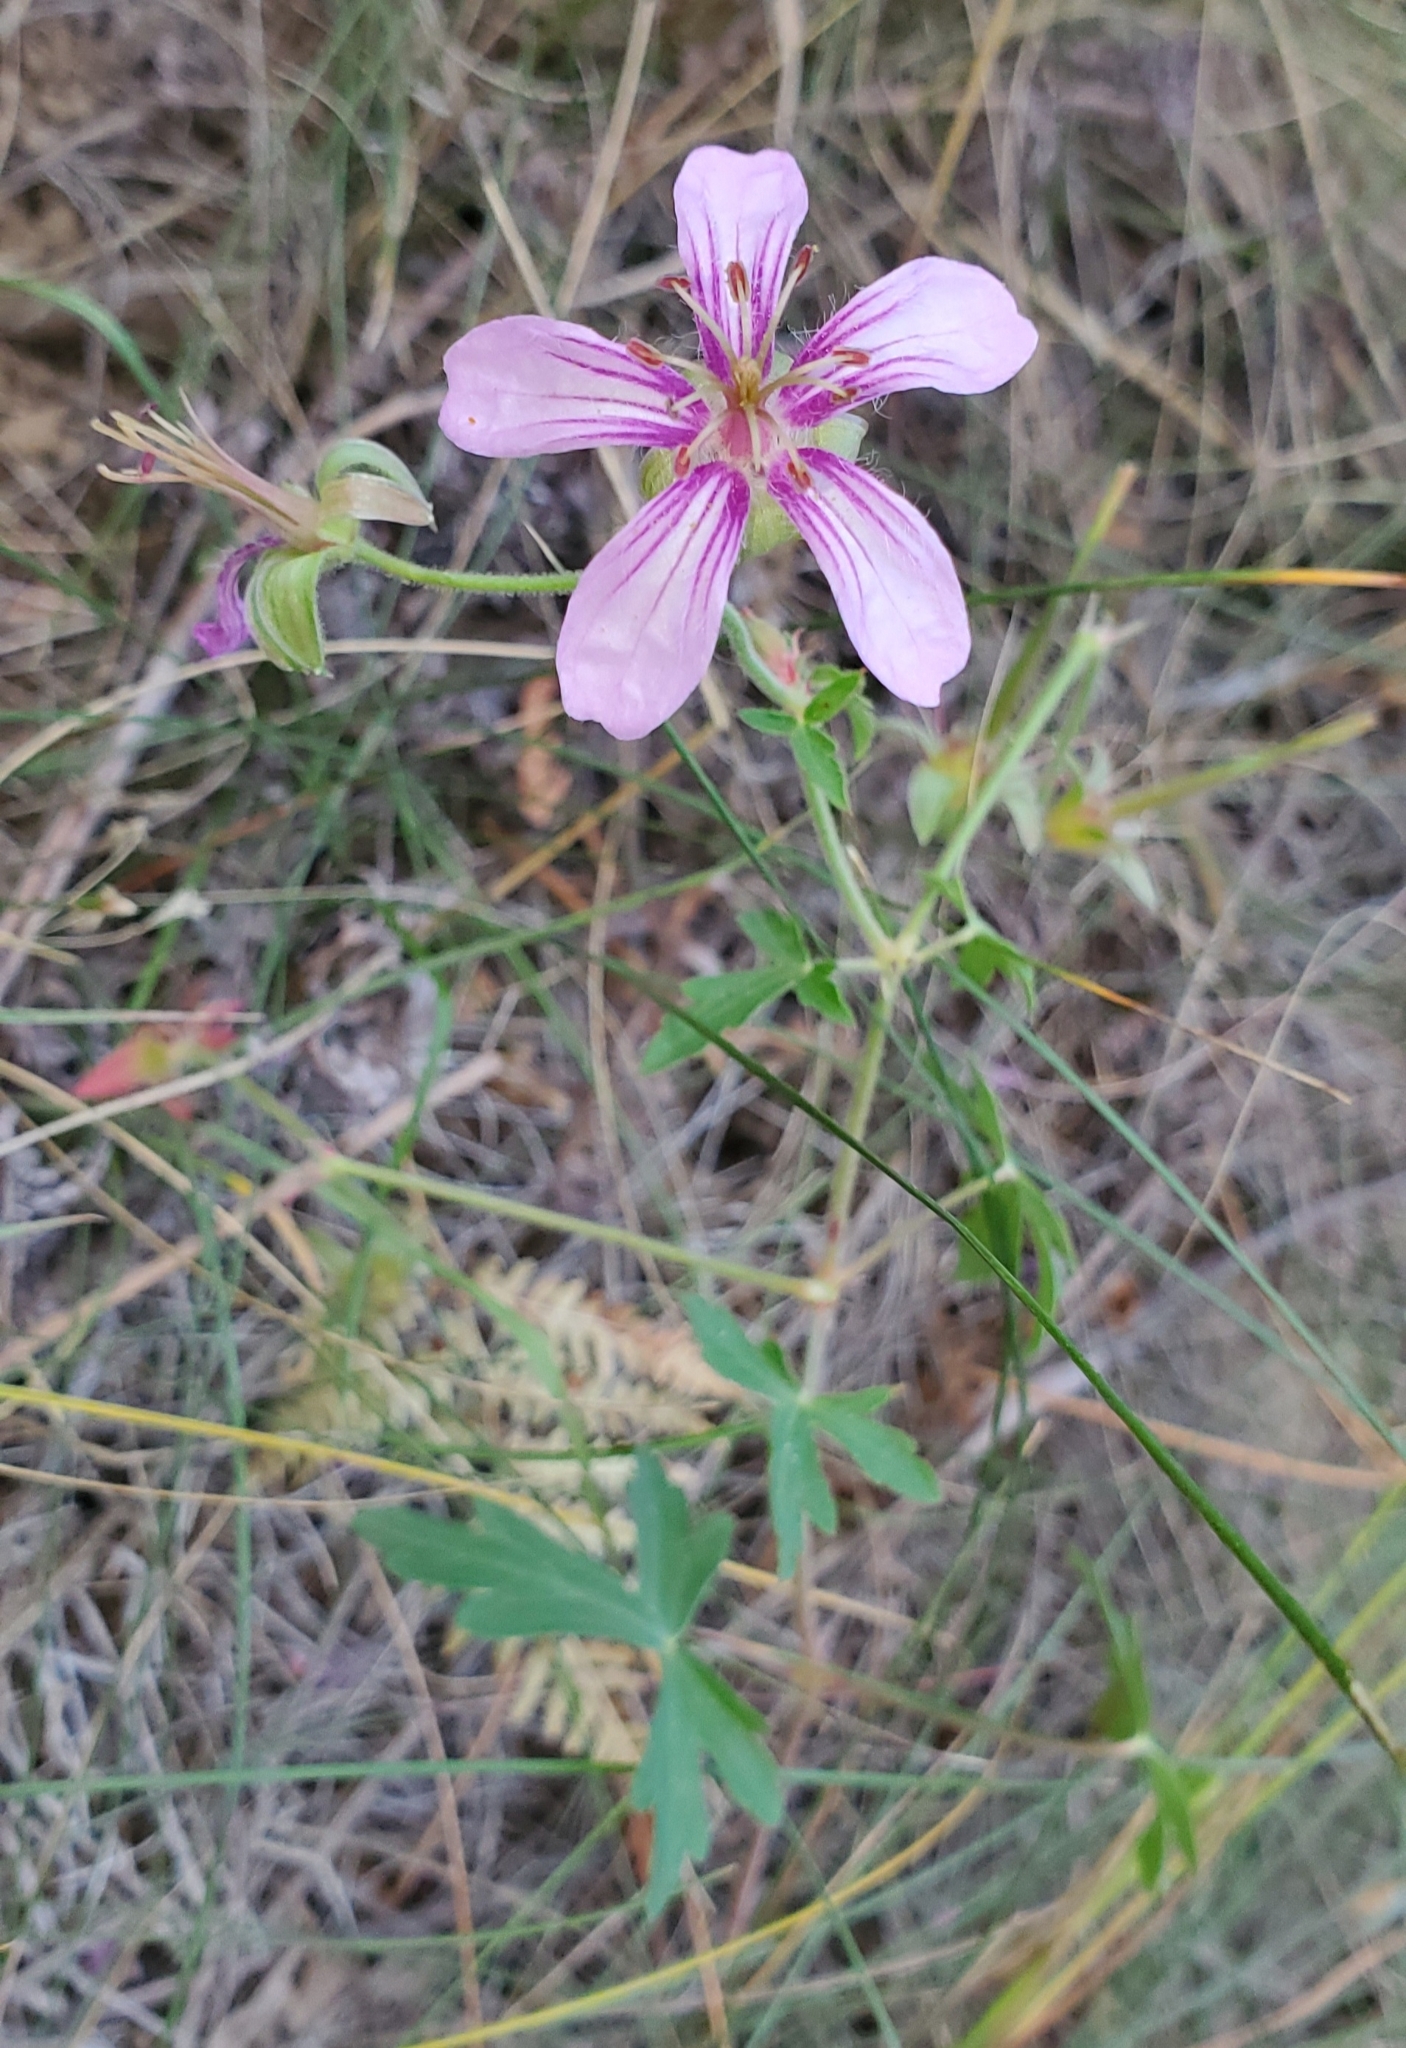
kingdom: Plantae
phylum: Tracheophyta
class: Magnoliopsida
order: Geraniales
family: Geraniaceae
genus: Geranium
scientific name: Geranium caespitosum
